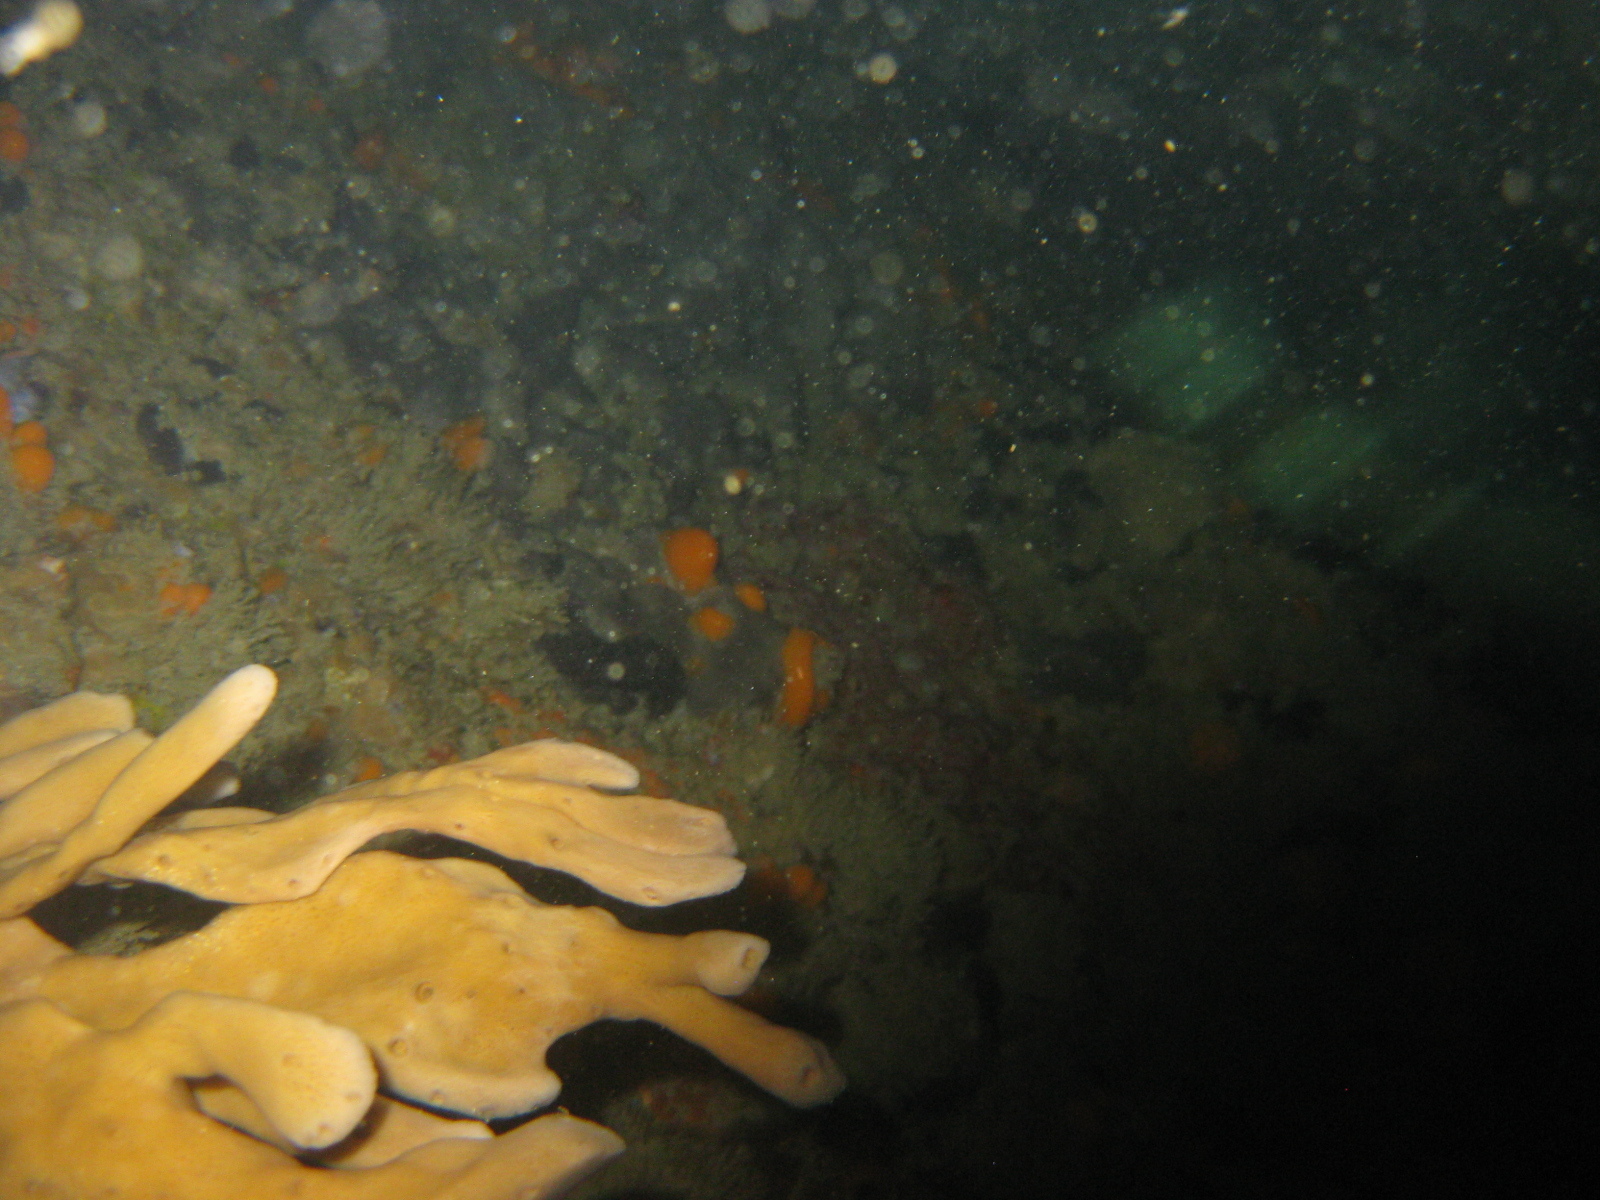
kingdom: Animalia
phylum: Porifera
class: Demospongiae
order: Tethyida
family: Tethyidae
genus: Tethya
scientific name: Tethya burtoni
